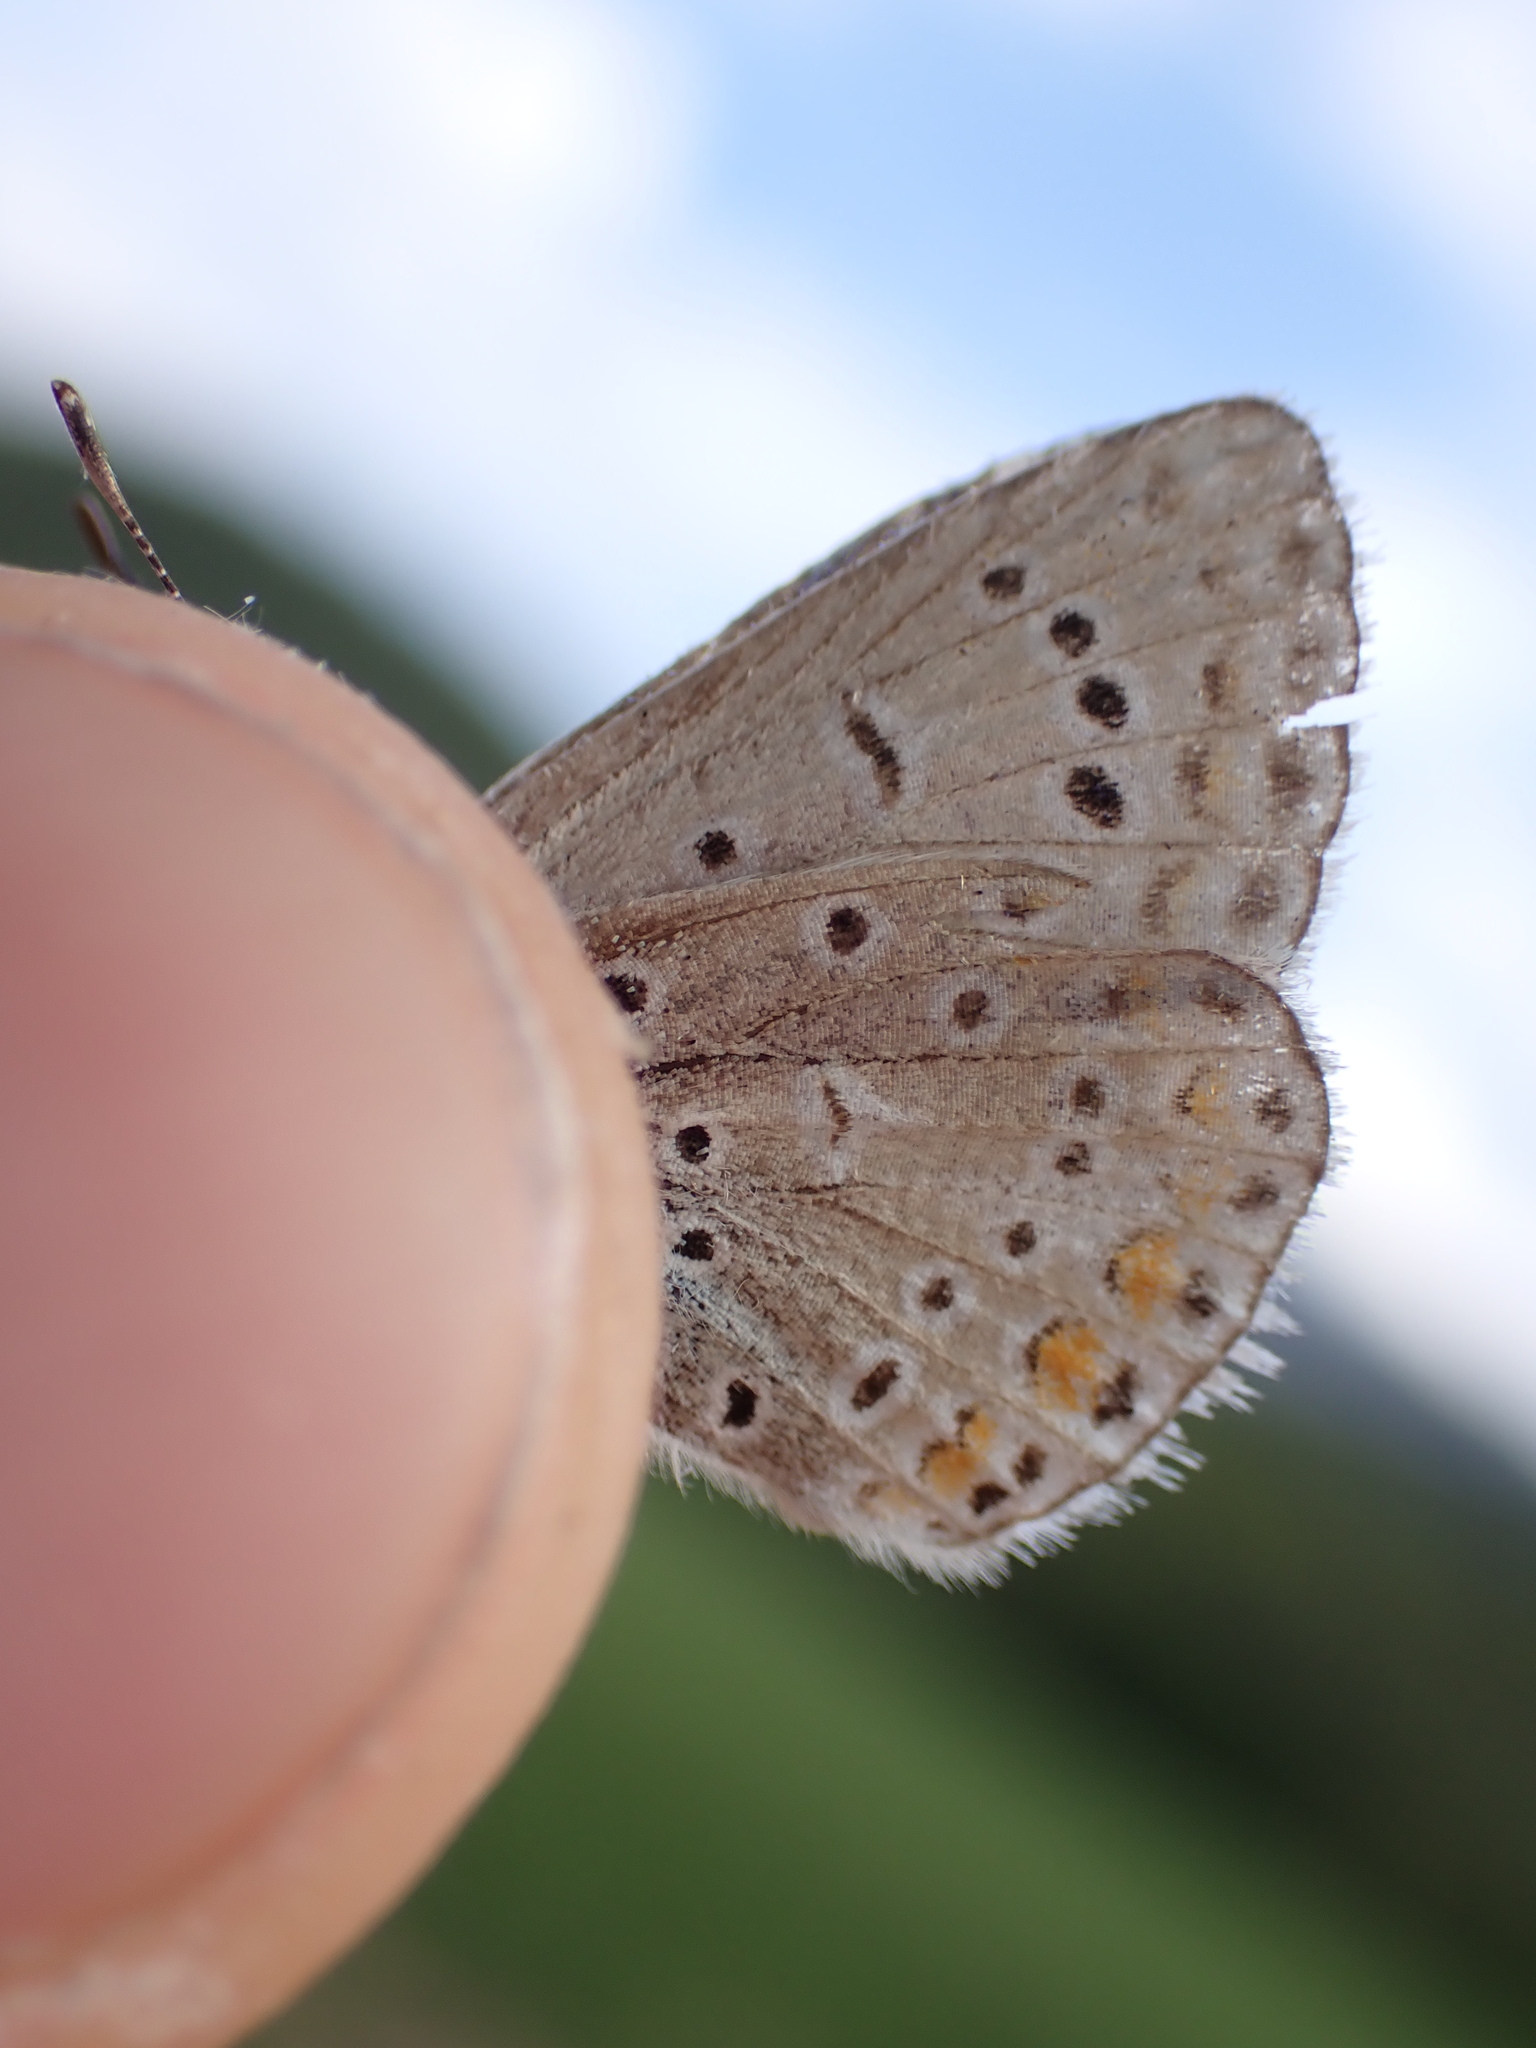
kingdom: Animalia
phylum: Arthropoda
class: Insecta
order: Lepidoptera
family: Lycaenidae
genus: Polyommatus
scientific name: Polyommatus icarus
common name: Common blue
